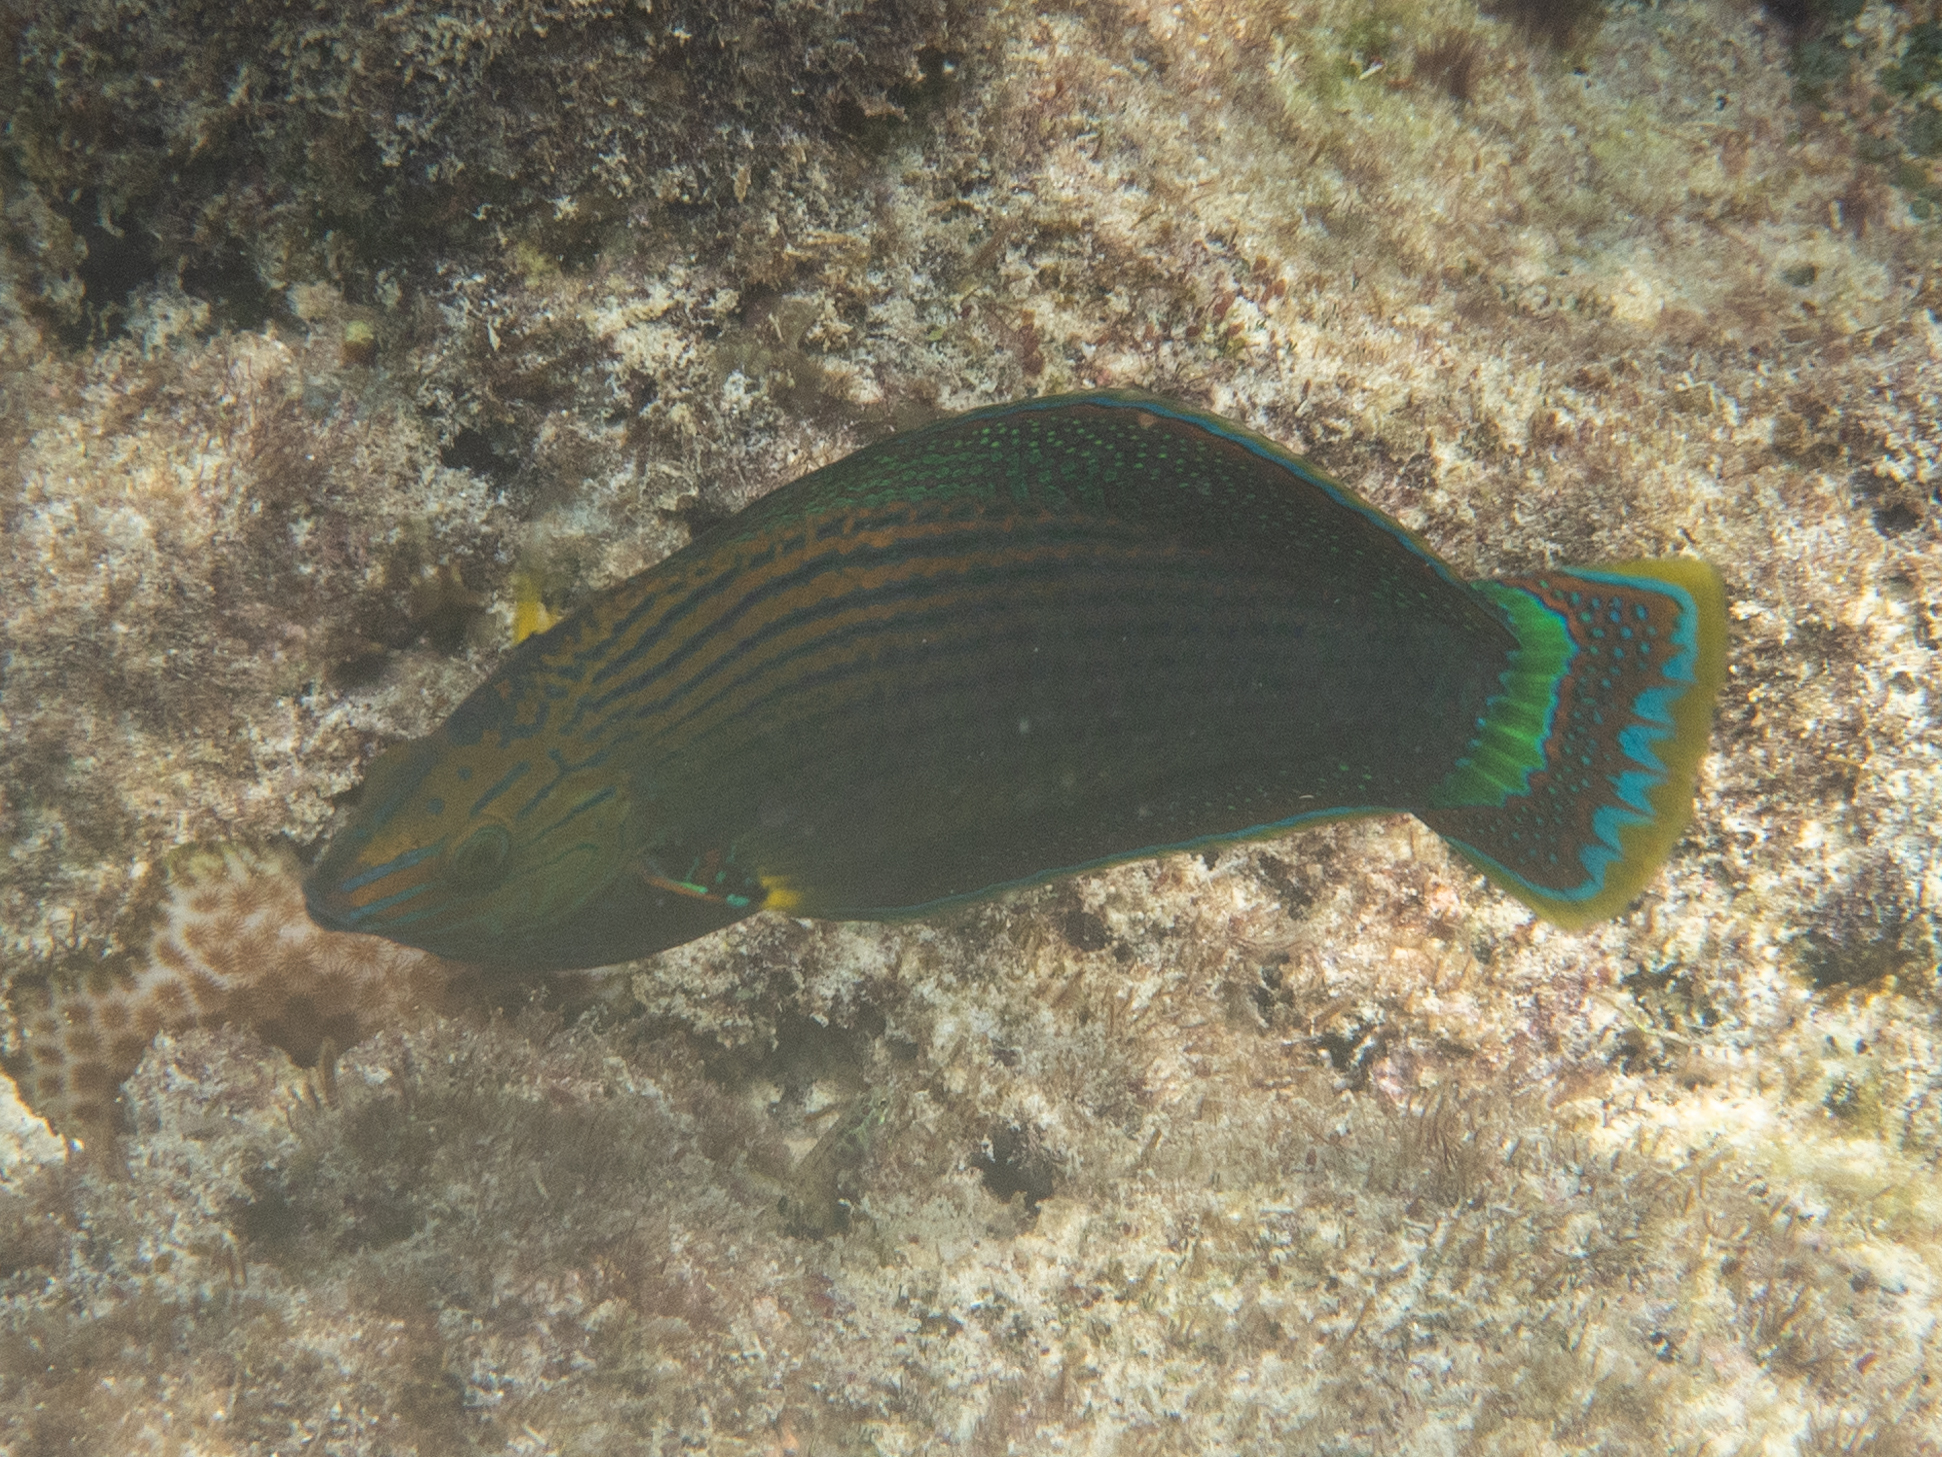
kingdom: Animalia
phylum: Chordata
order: Perciformes
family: Labridae
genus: Halichoeres
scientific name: Halichoeres marginatus
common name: Dusky wrasse
